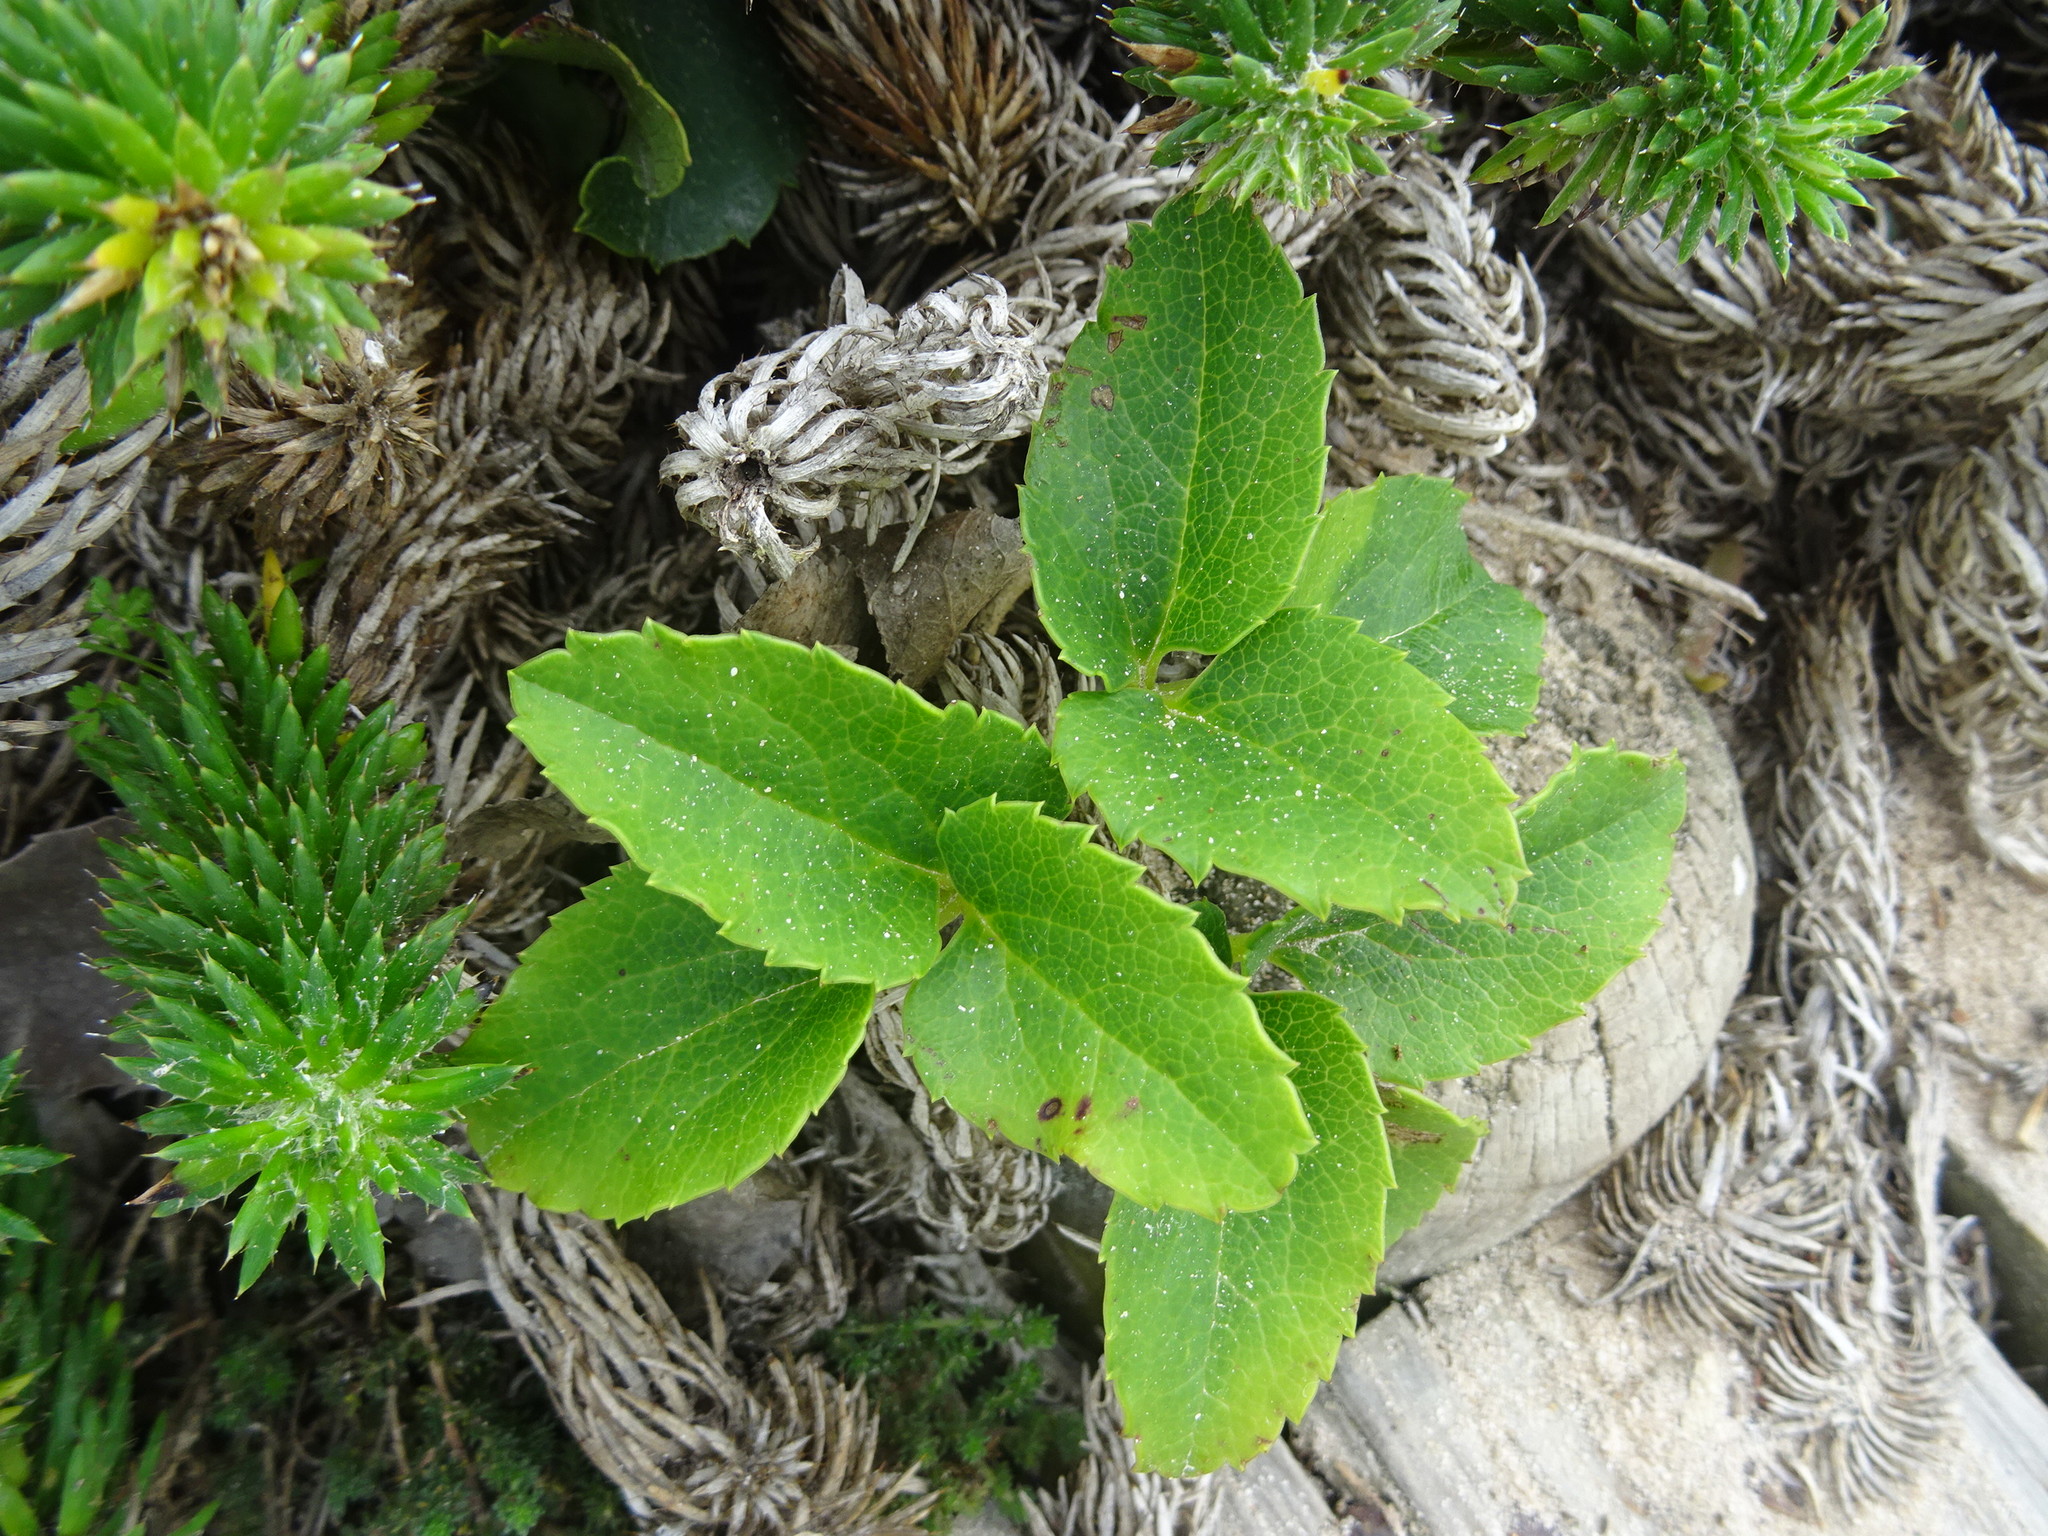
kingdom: Plantae
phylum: Tracheophyta
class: Magnoliopsida
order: Ranunculales
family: Ranunculaceae
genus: Knowltonia
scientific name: Knowltonia vesicatoria
